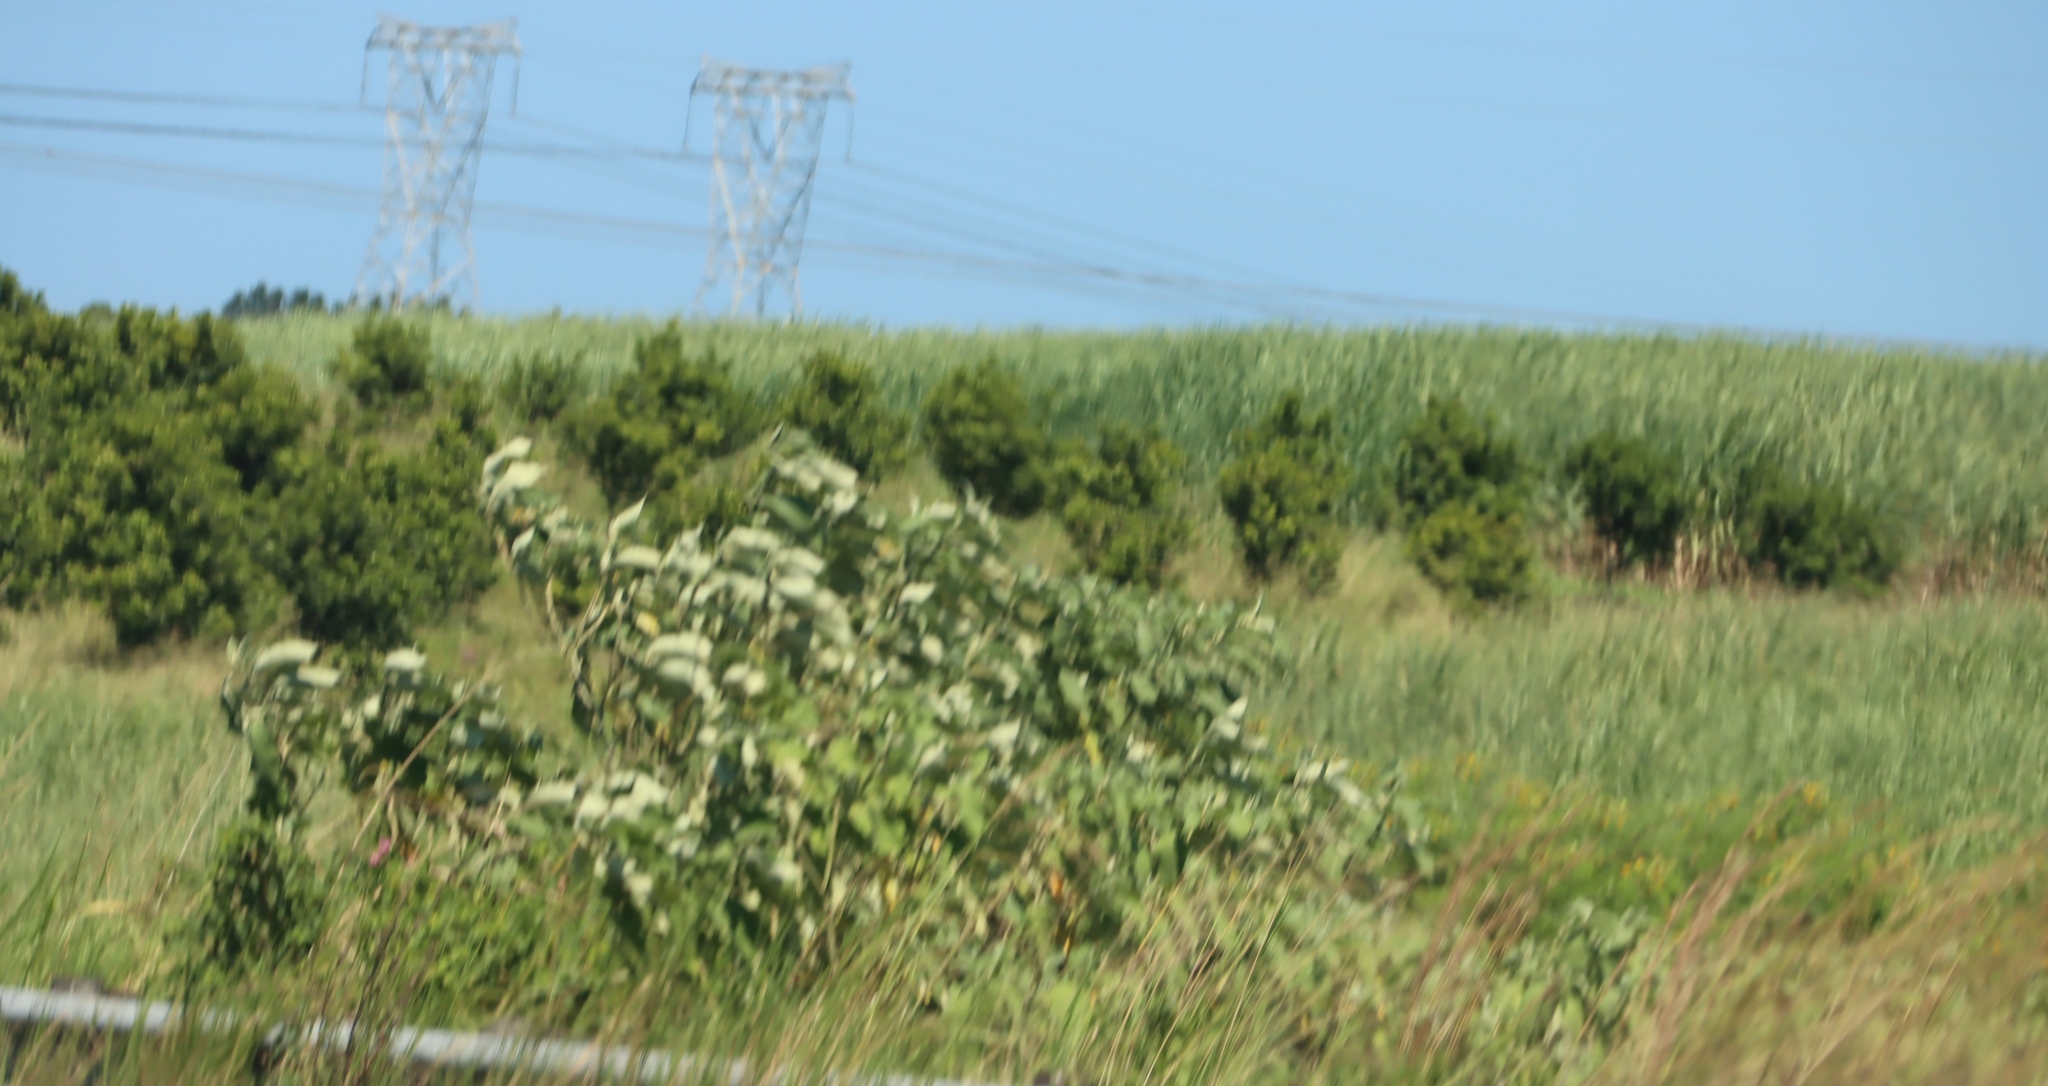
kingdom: Plantae
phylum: Tracheophyta
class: Magnoliopsida
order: Solanales
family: Solanaceae
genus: Solanum
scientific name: Solanum mauritianum
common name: Earleaf nightshade
